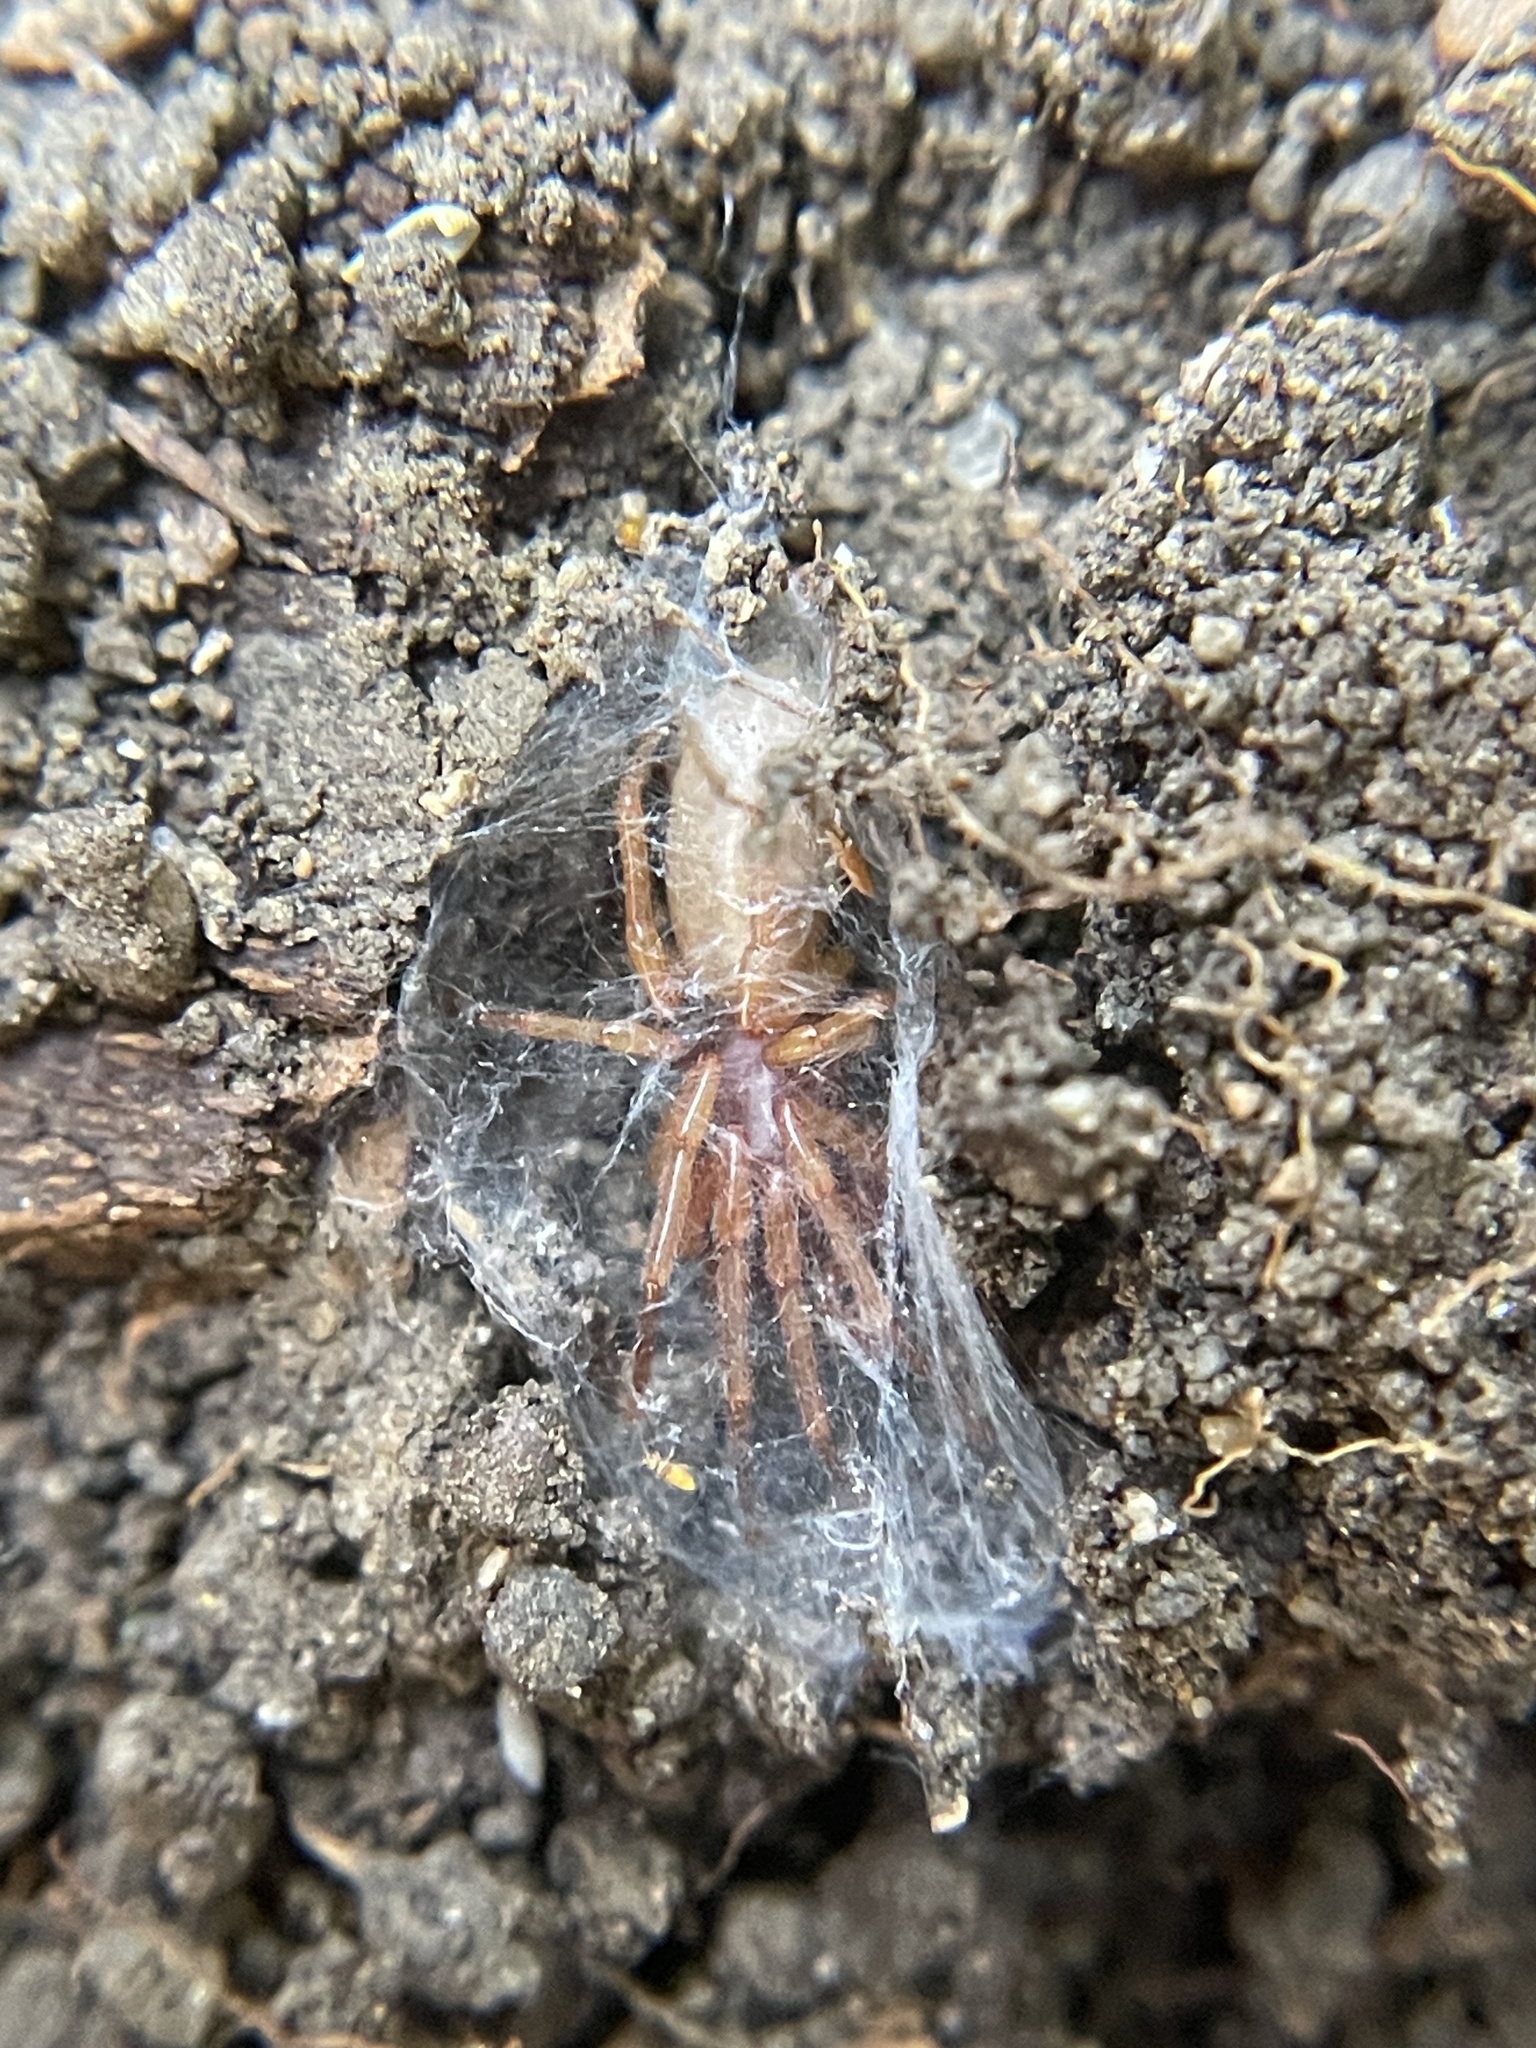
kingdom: Animalia
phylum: Arthropoda
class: Arachnida
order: Araneae
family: Dysderidae
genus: Dysdera
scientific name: Dysdera crocata
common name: Woodlouse spider
